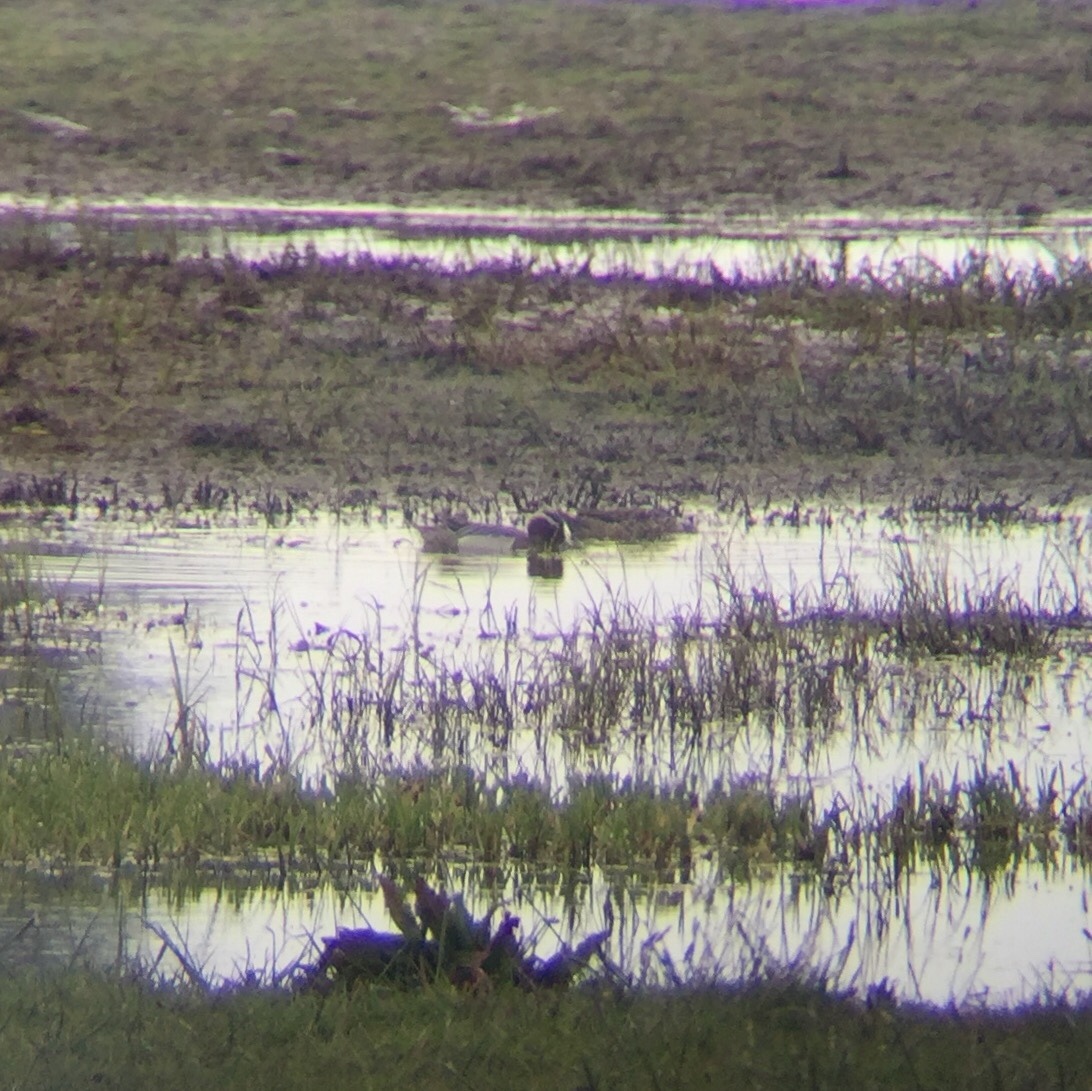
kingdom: Animalia
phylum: Chordata
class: Aves
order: Anseriformes
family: Anatidae
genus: Spatula
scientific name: Spatula querquedula
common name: Garganey
